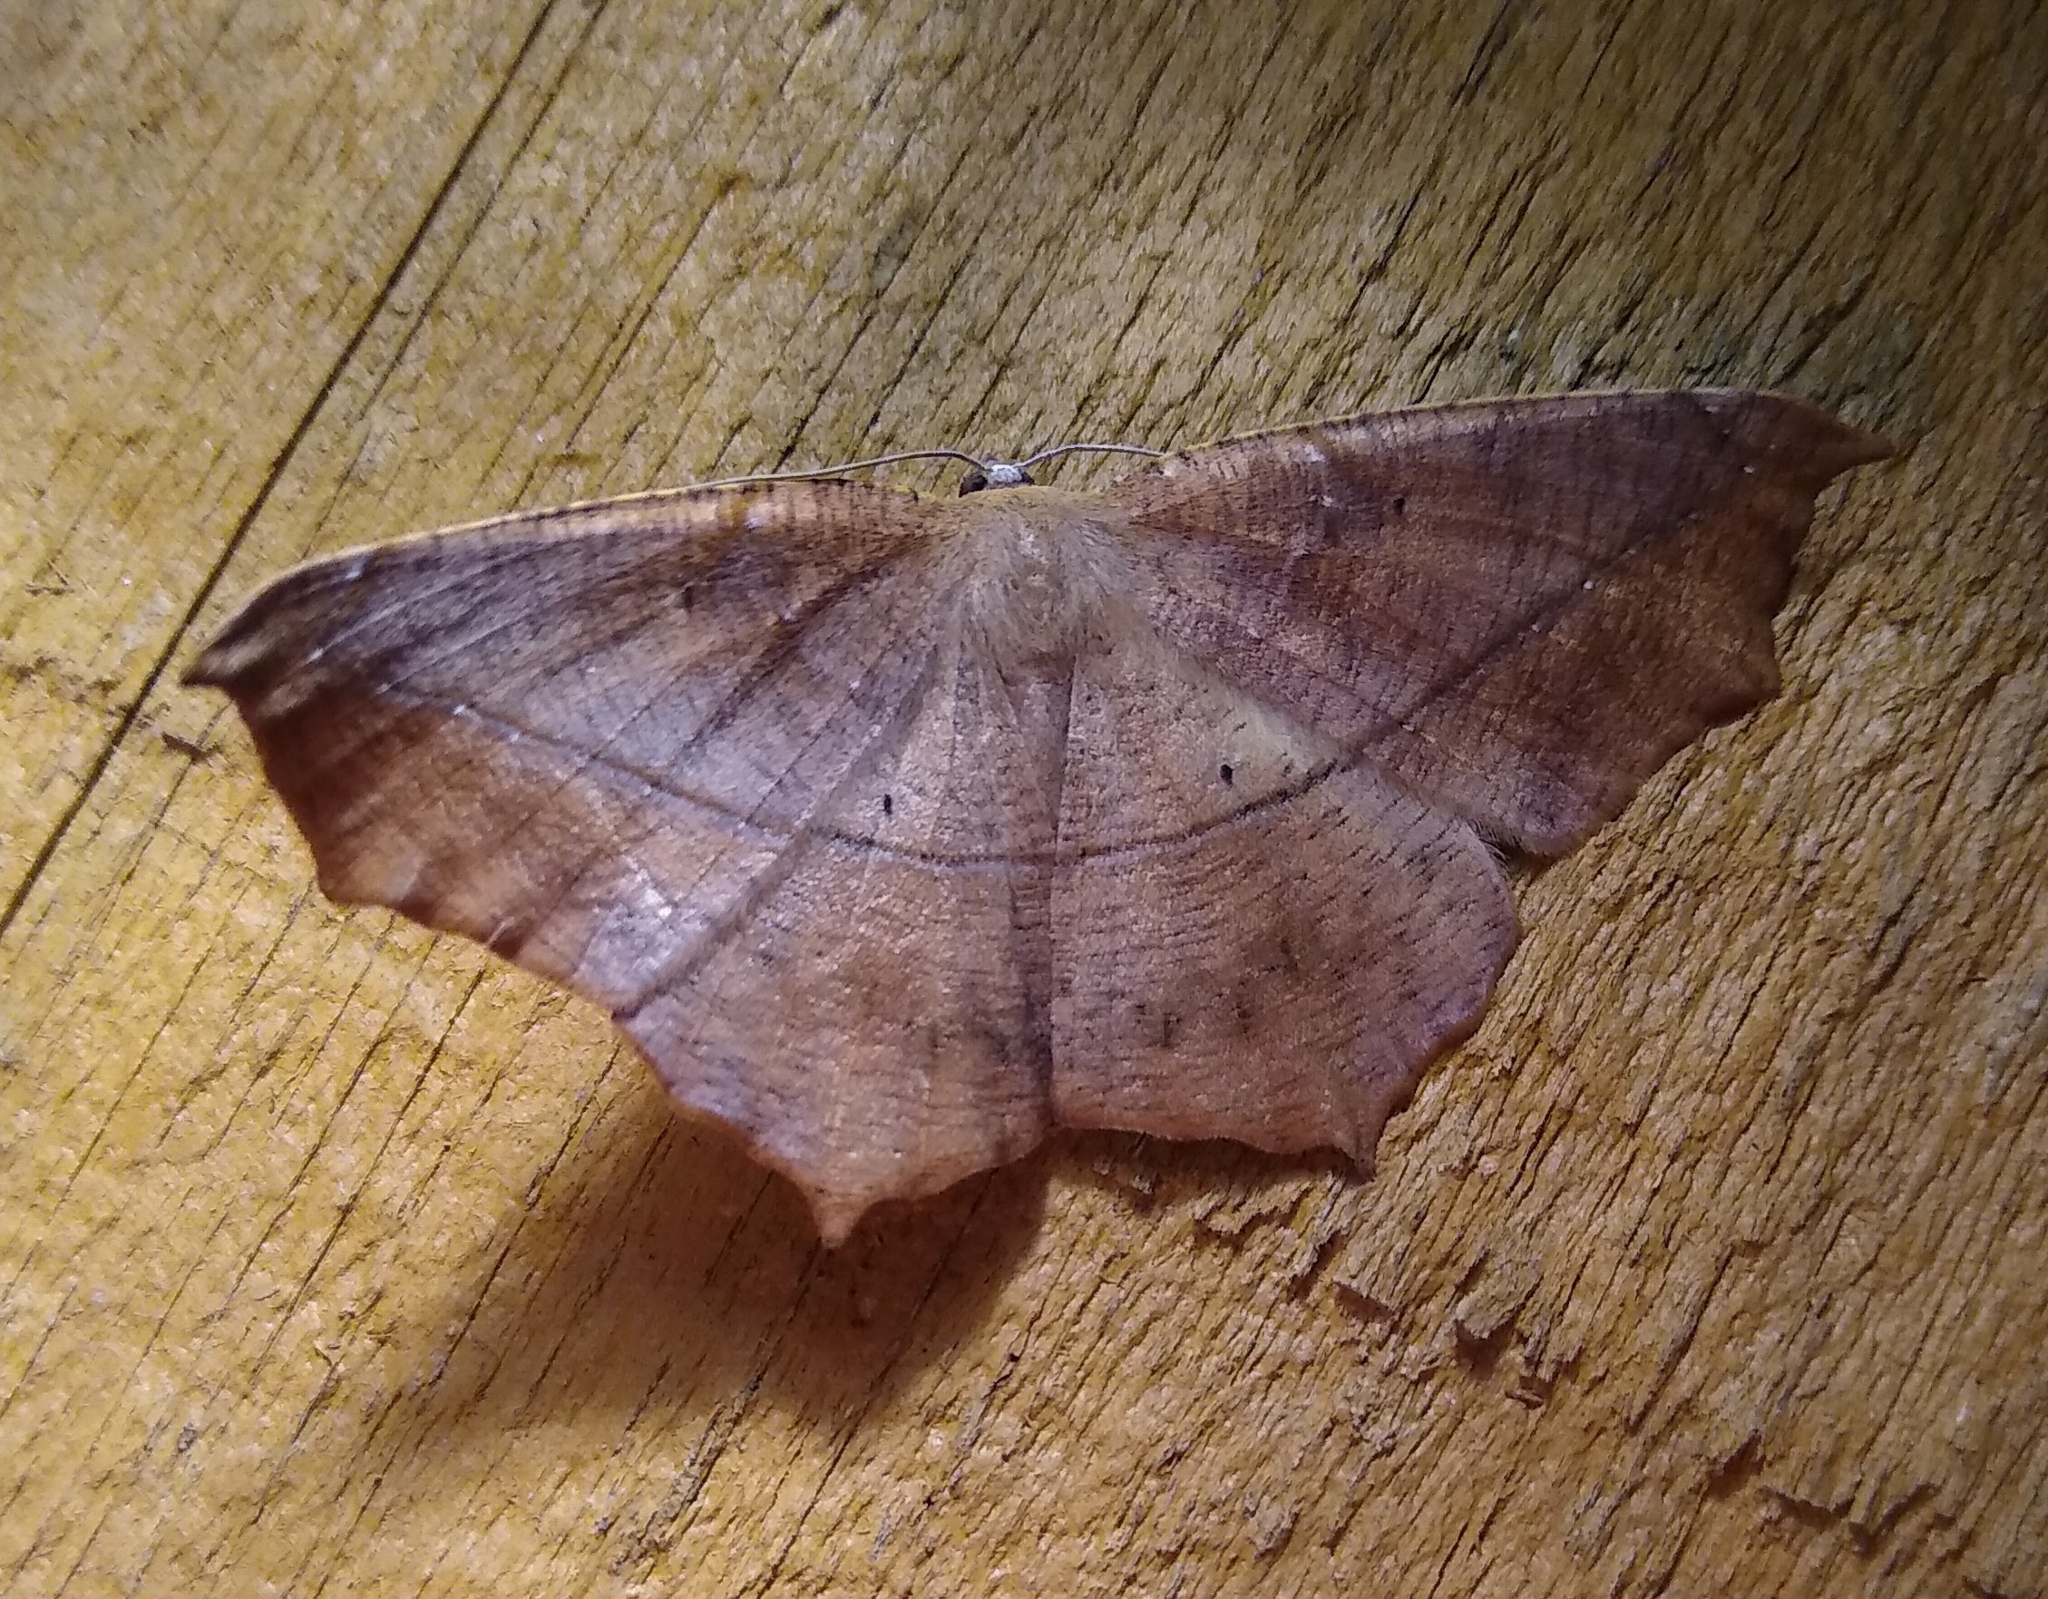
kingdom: Animalia
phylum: Arthropoda
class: Insecta
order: Lepidoptera
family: Geometridae
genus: Prochoerodes
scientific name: Prochoerodes lineola
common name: Large maple spanworm
